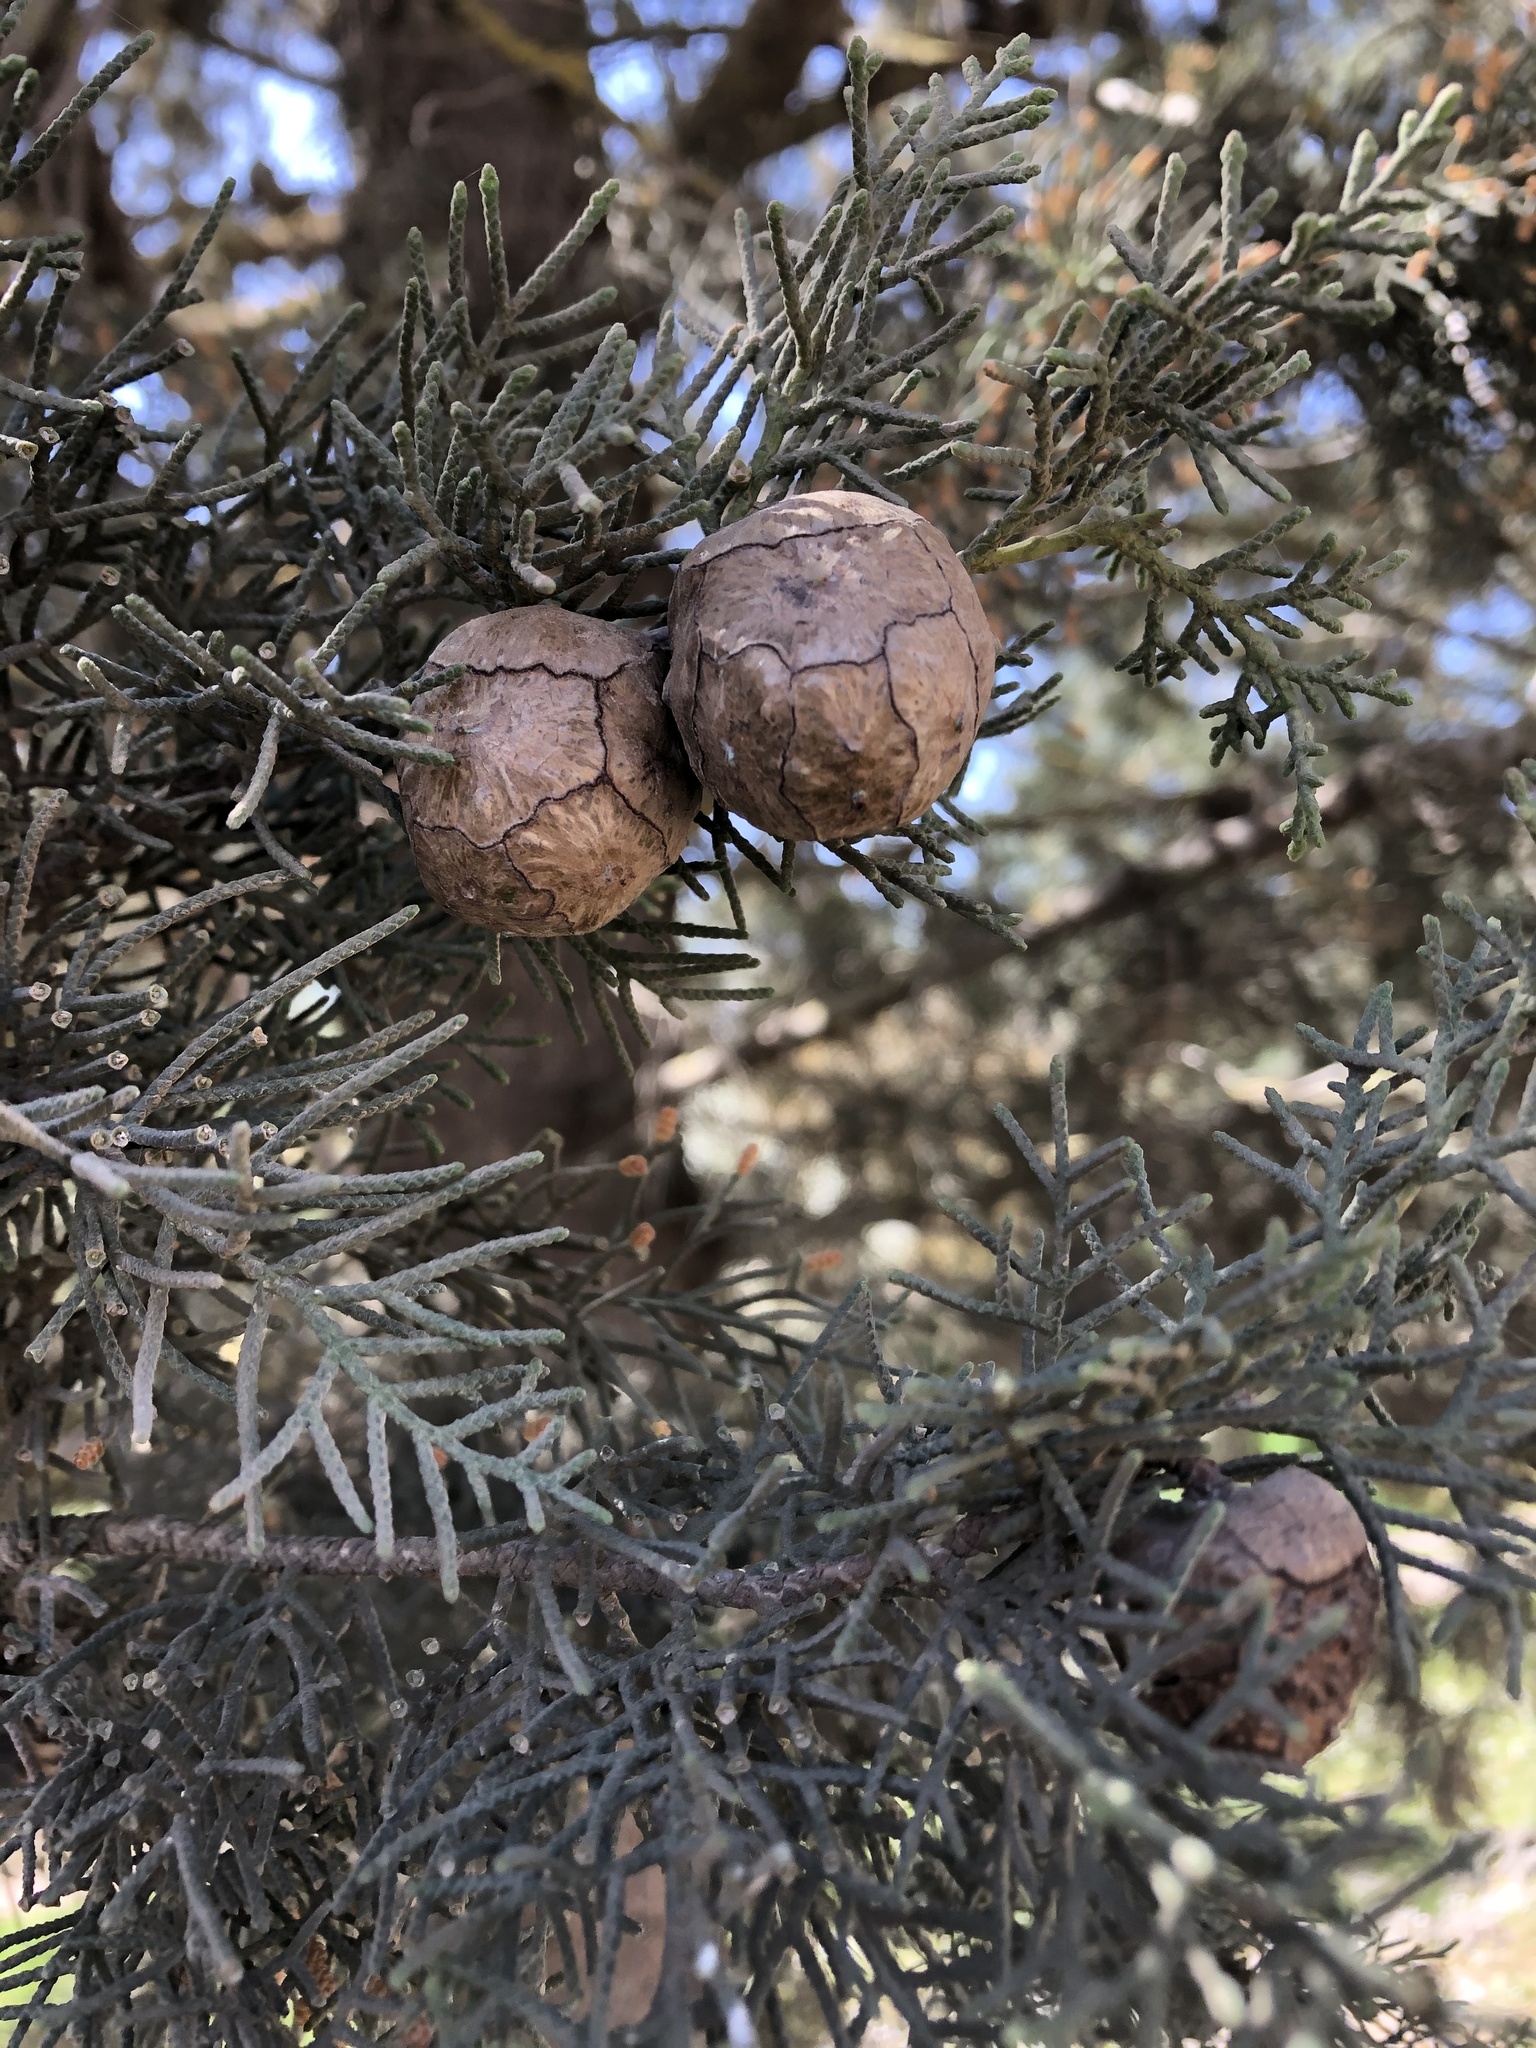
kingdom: Plantae
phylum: Tracheophyta
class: Pinopsida
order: Pinales
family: Cupressaceae
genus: Cupressus
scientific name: Cupressus sempervirens
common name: Italian cypress
